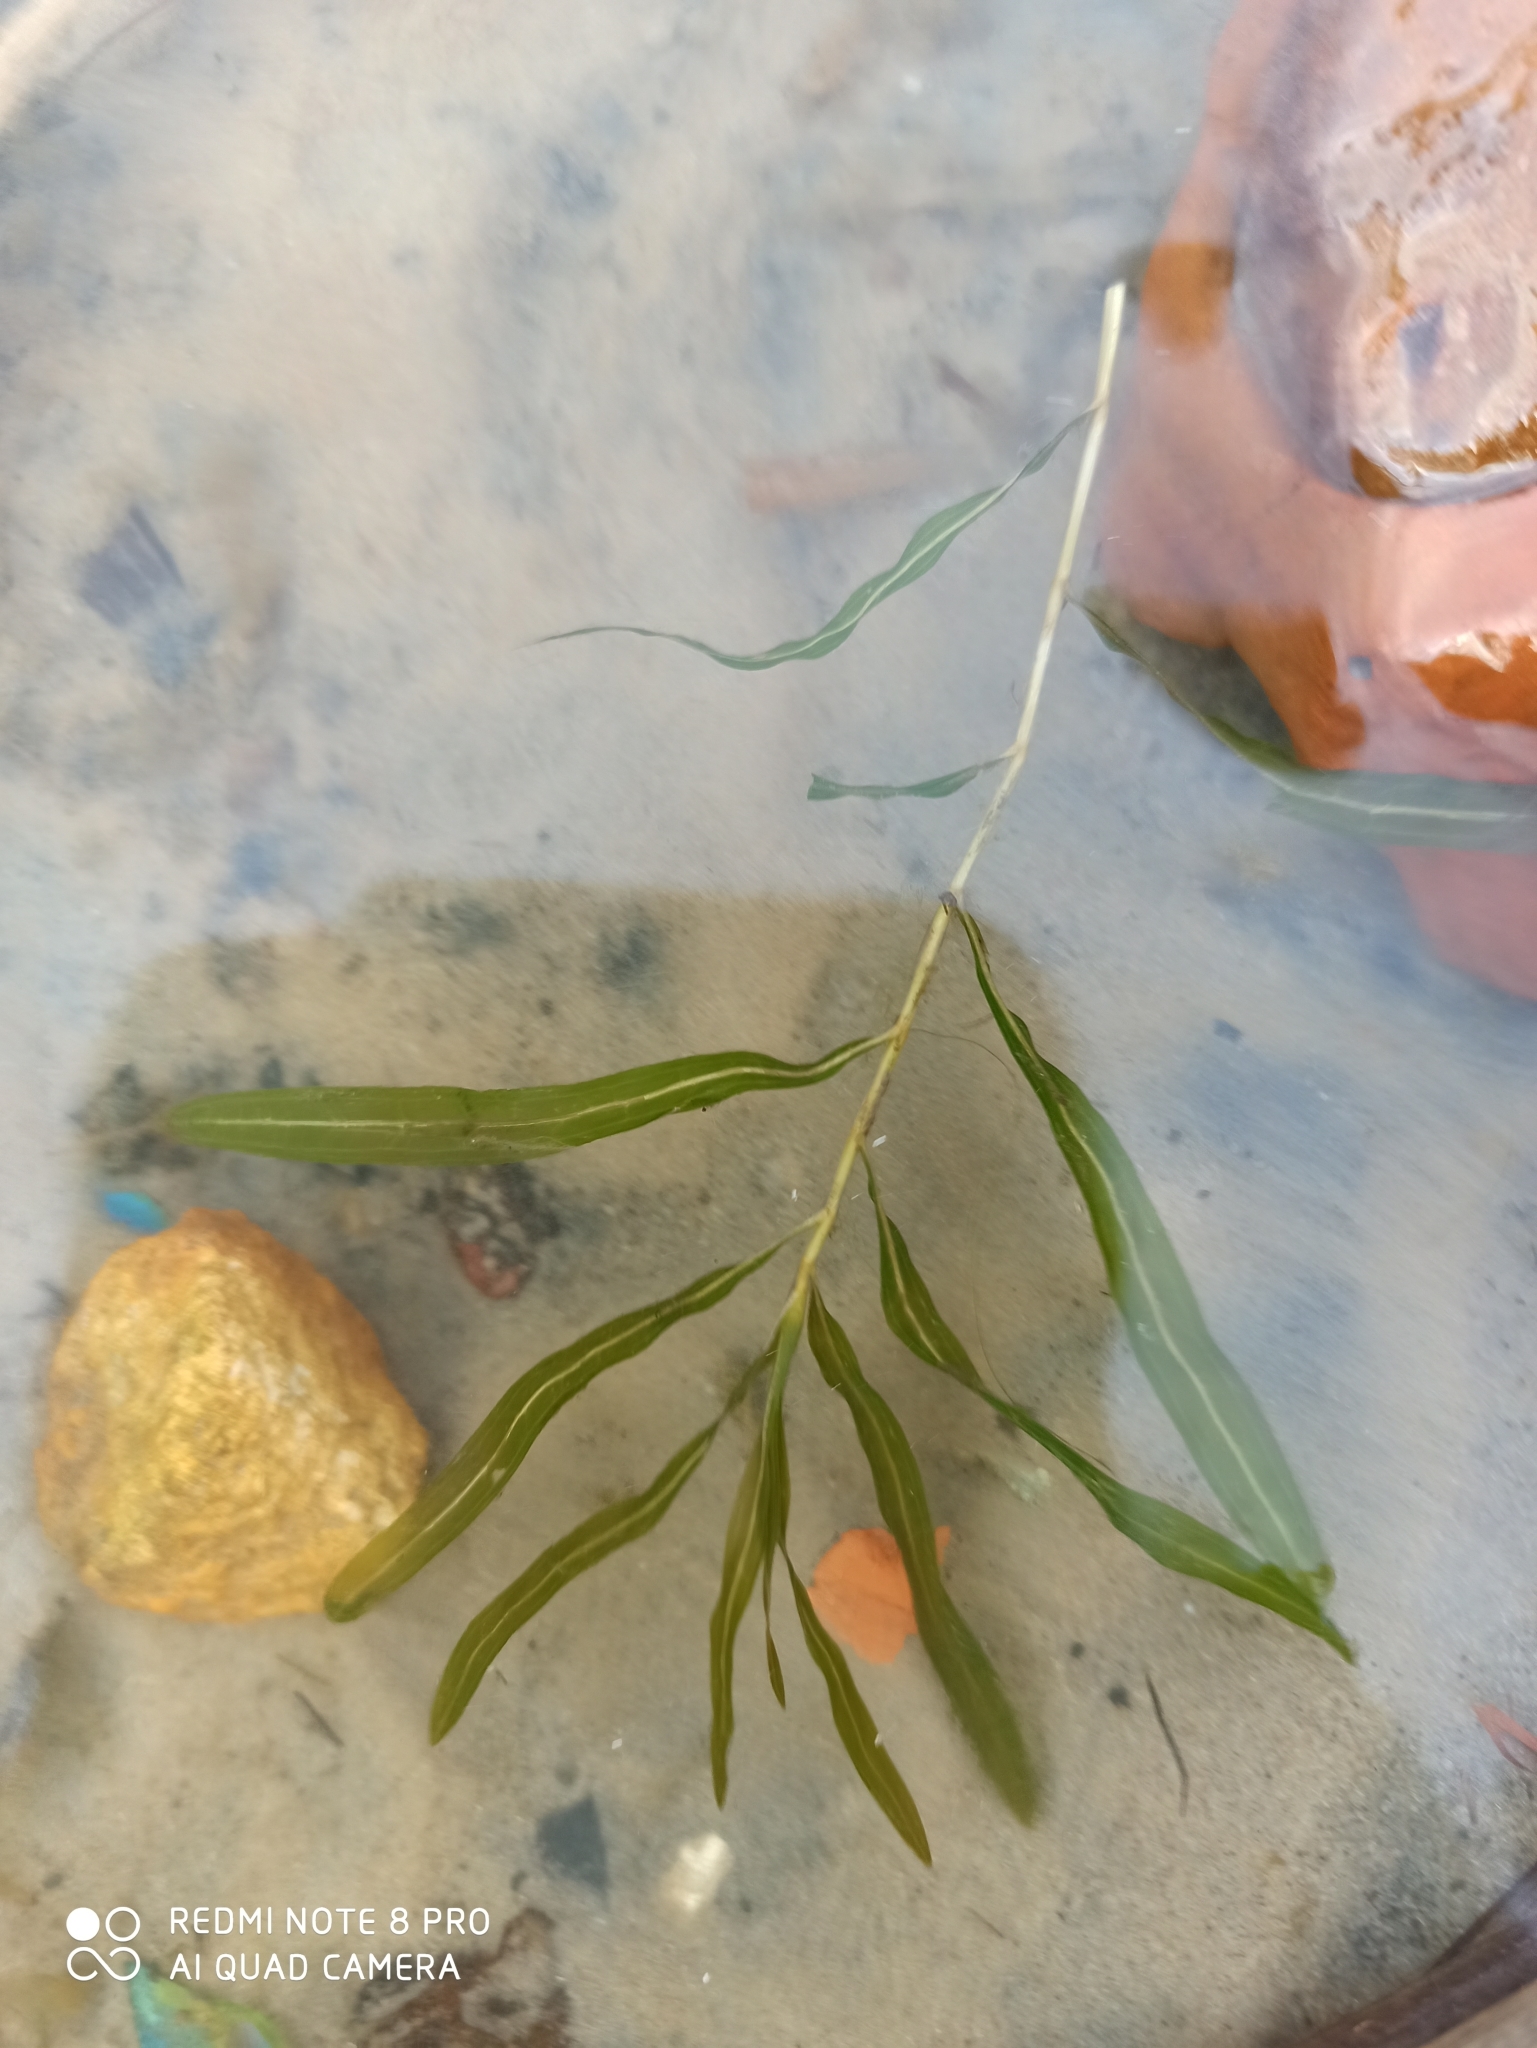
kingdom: Plantae
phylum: Tracheophyta
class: Liliopsida
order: Alismatales
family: Potamogetonaceae
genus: Potamogeton
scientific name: Potamogeton crispus
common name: Curled pondweed
